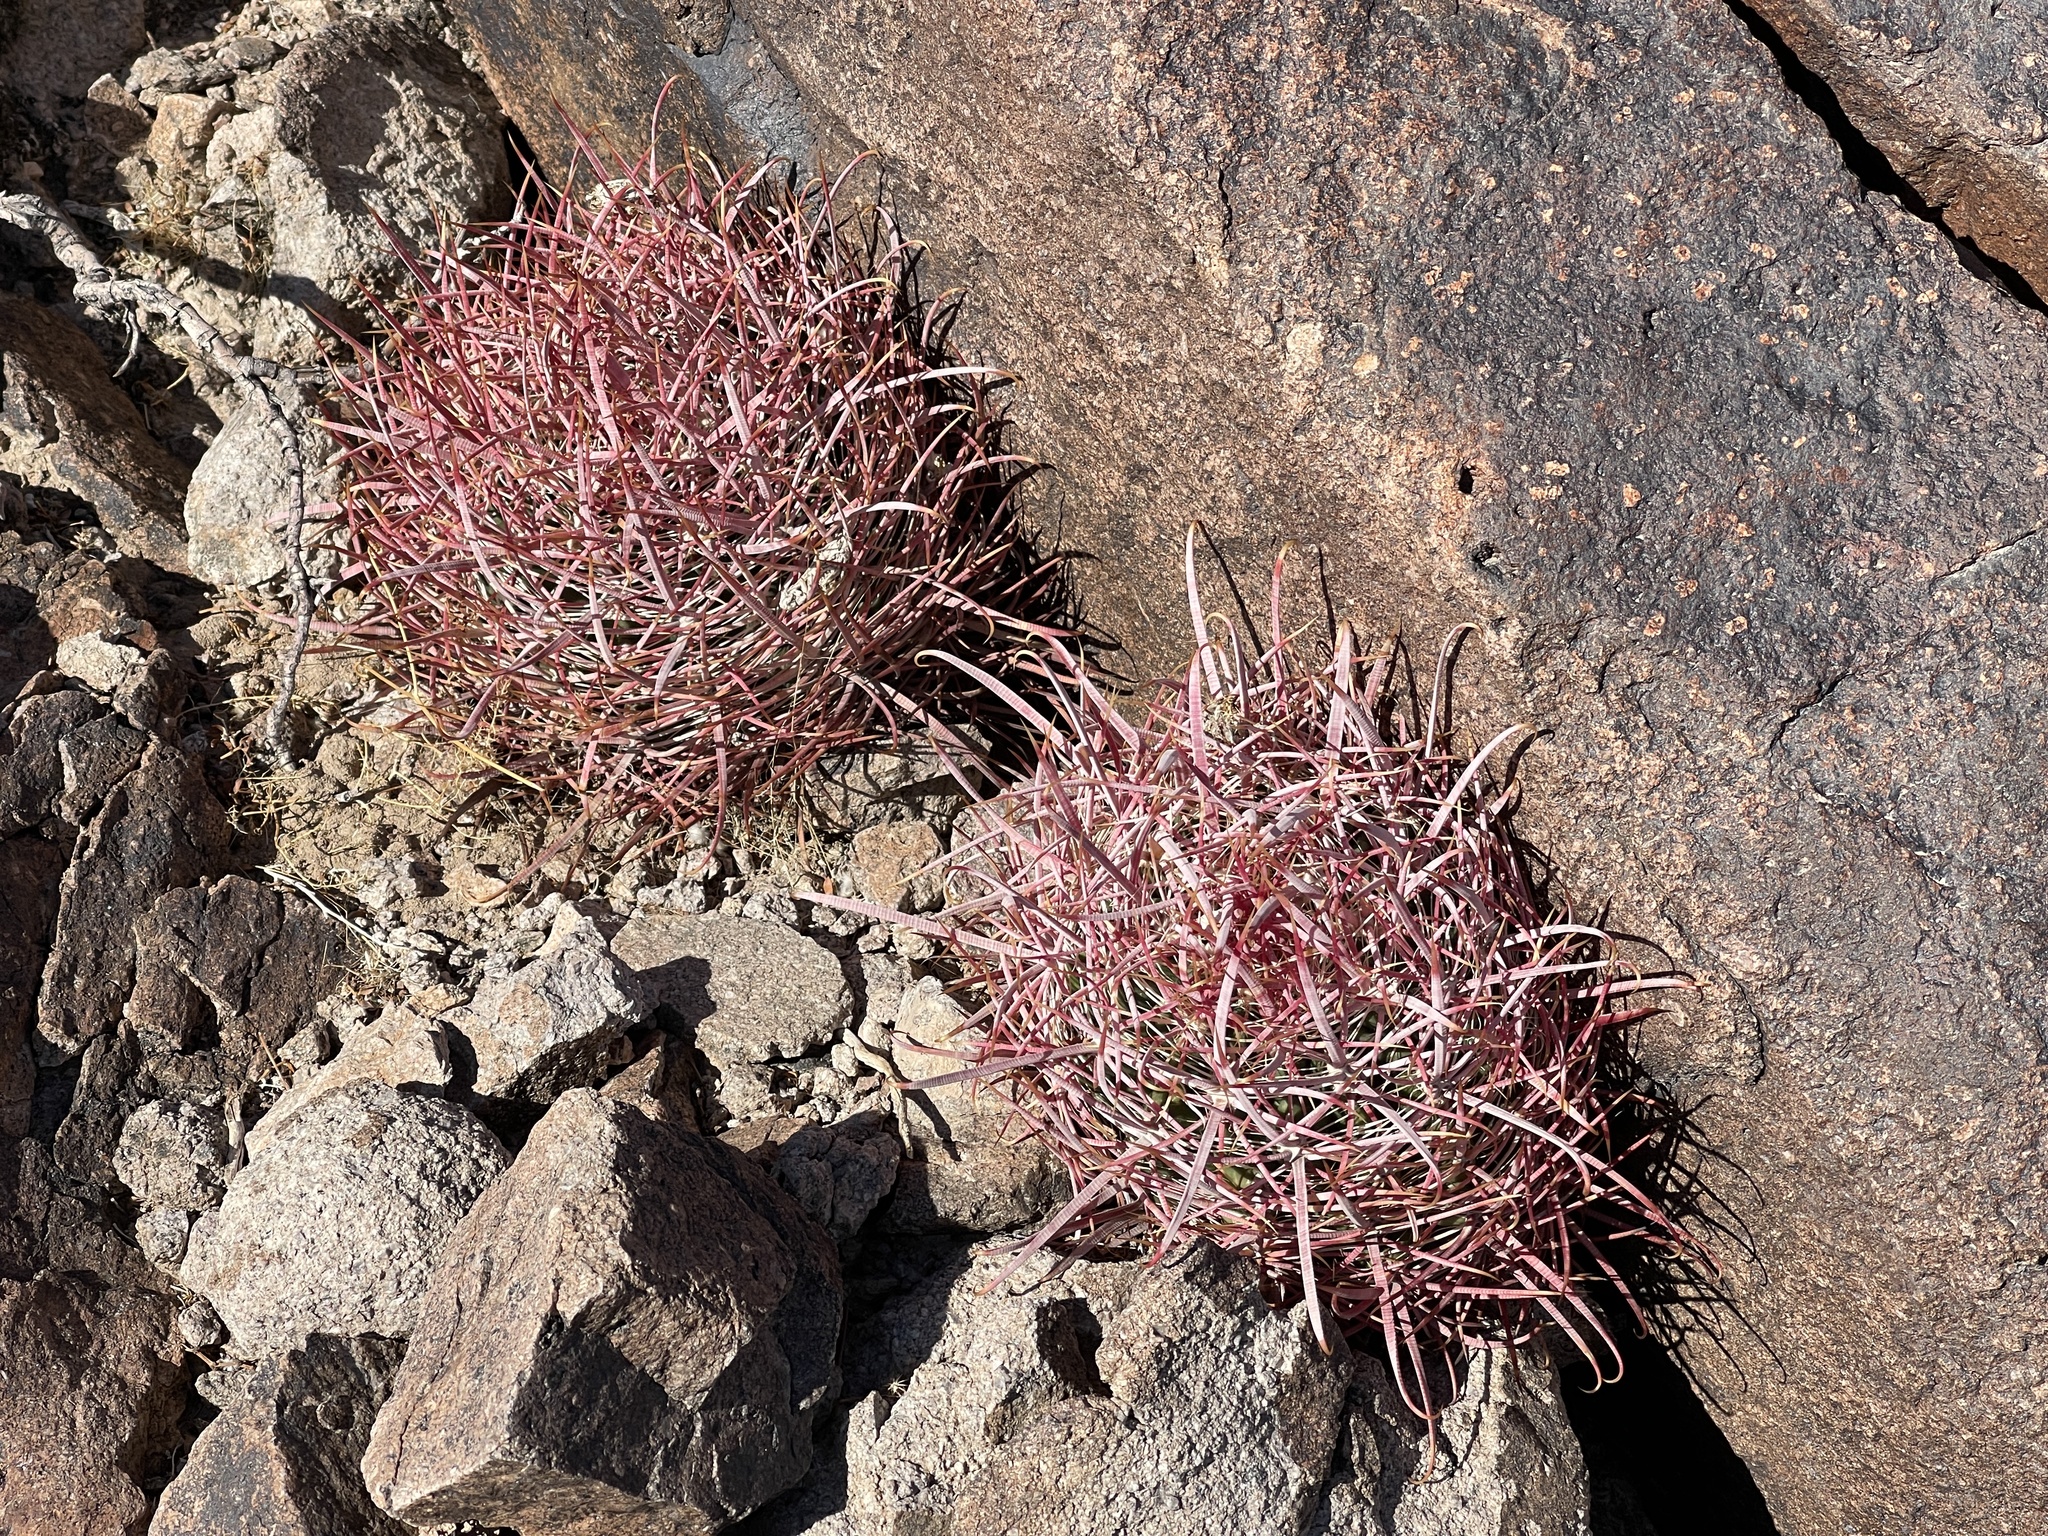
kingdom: Plantae
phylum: Tracheophyta
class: Magnoliopsida
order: Caryophyllales
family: Cactaceae
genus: Ferocactus
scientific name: Ferocactus cylindraceus
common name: California barrel cactus
